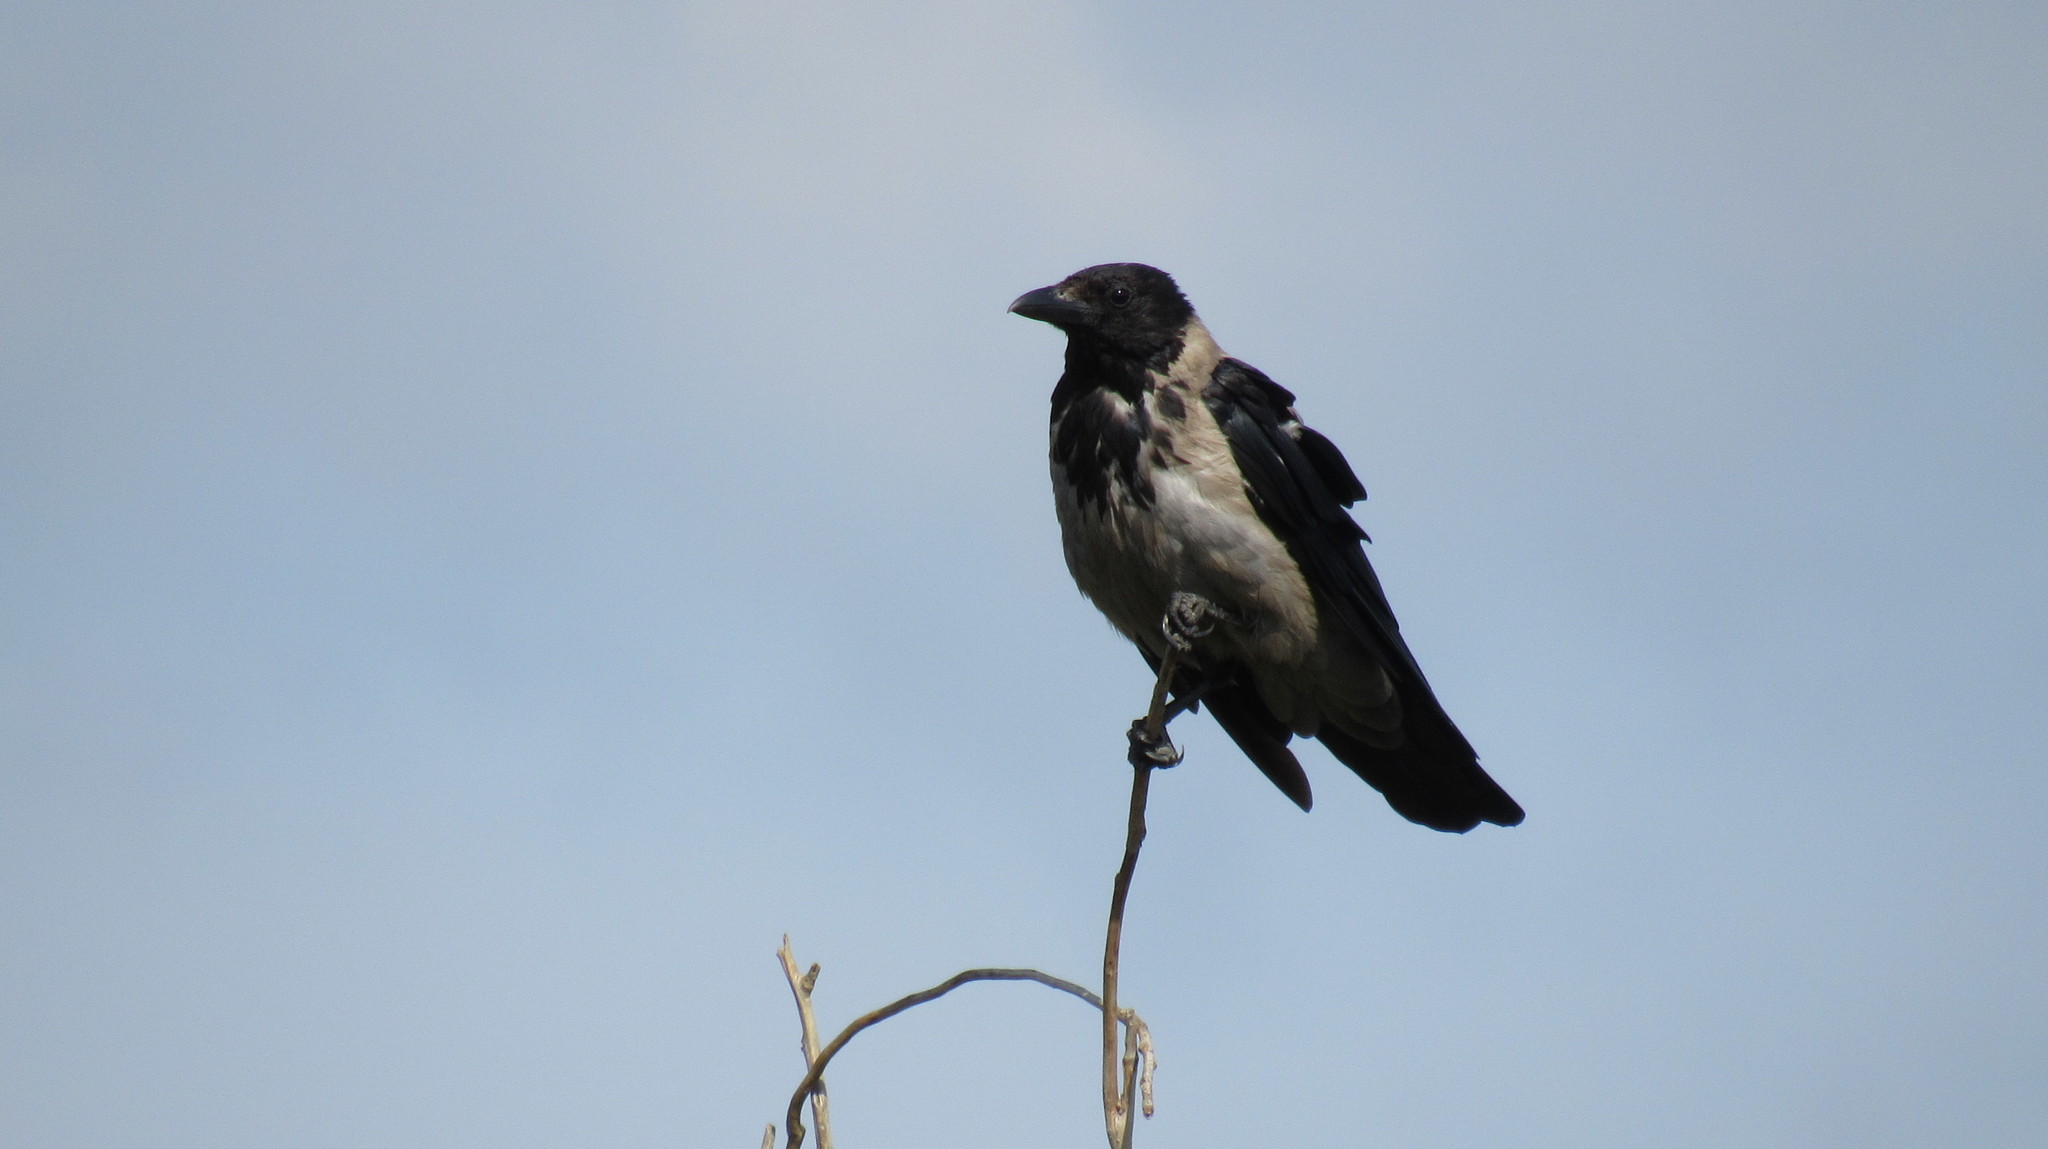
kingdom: Animalia
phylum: Chordata
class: Aves
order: Passeriformes
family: Corvidae
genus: Corvus
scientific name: Corvus cornix
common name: Hooded crow
